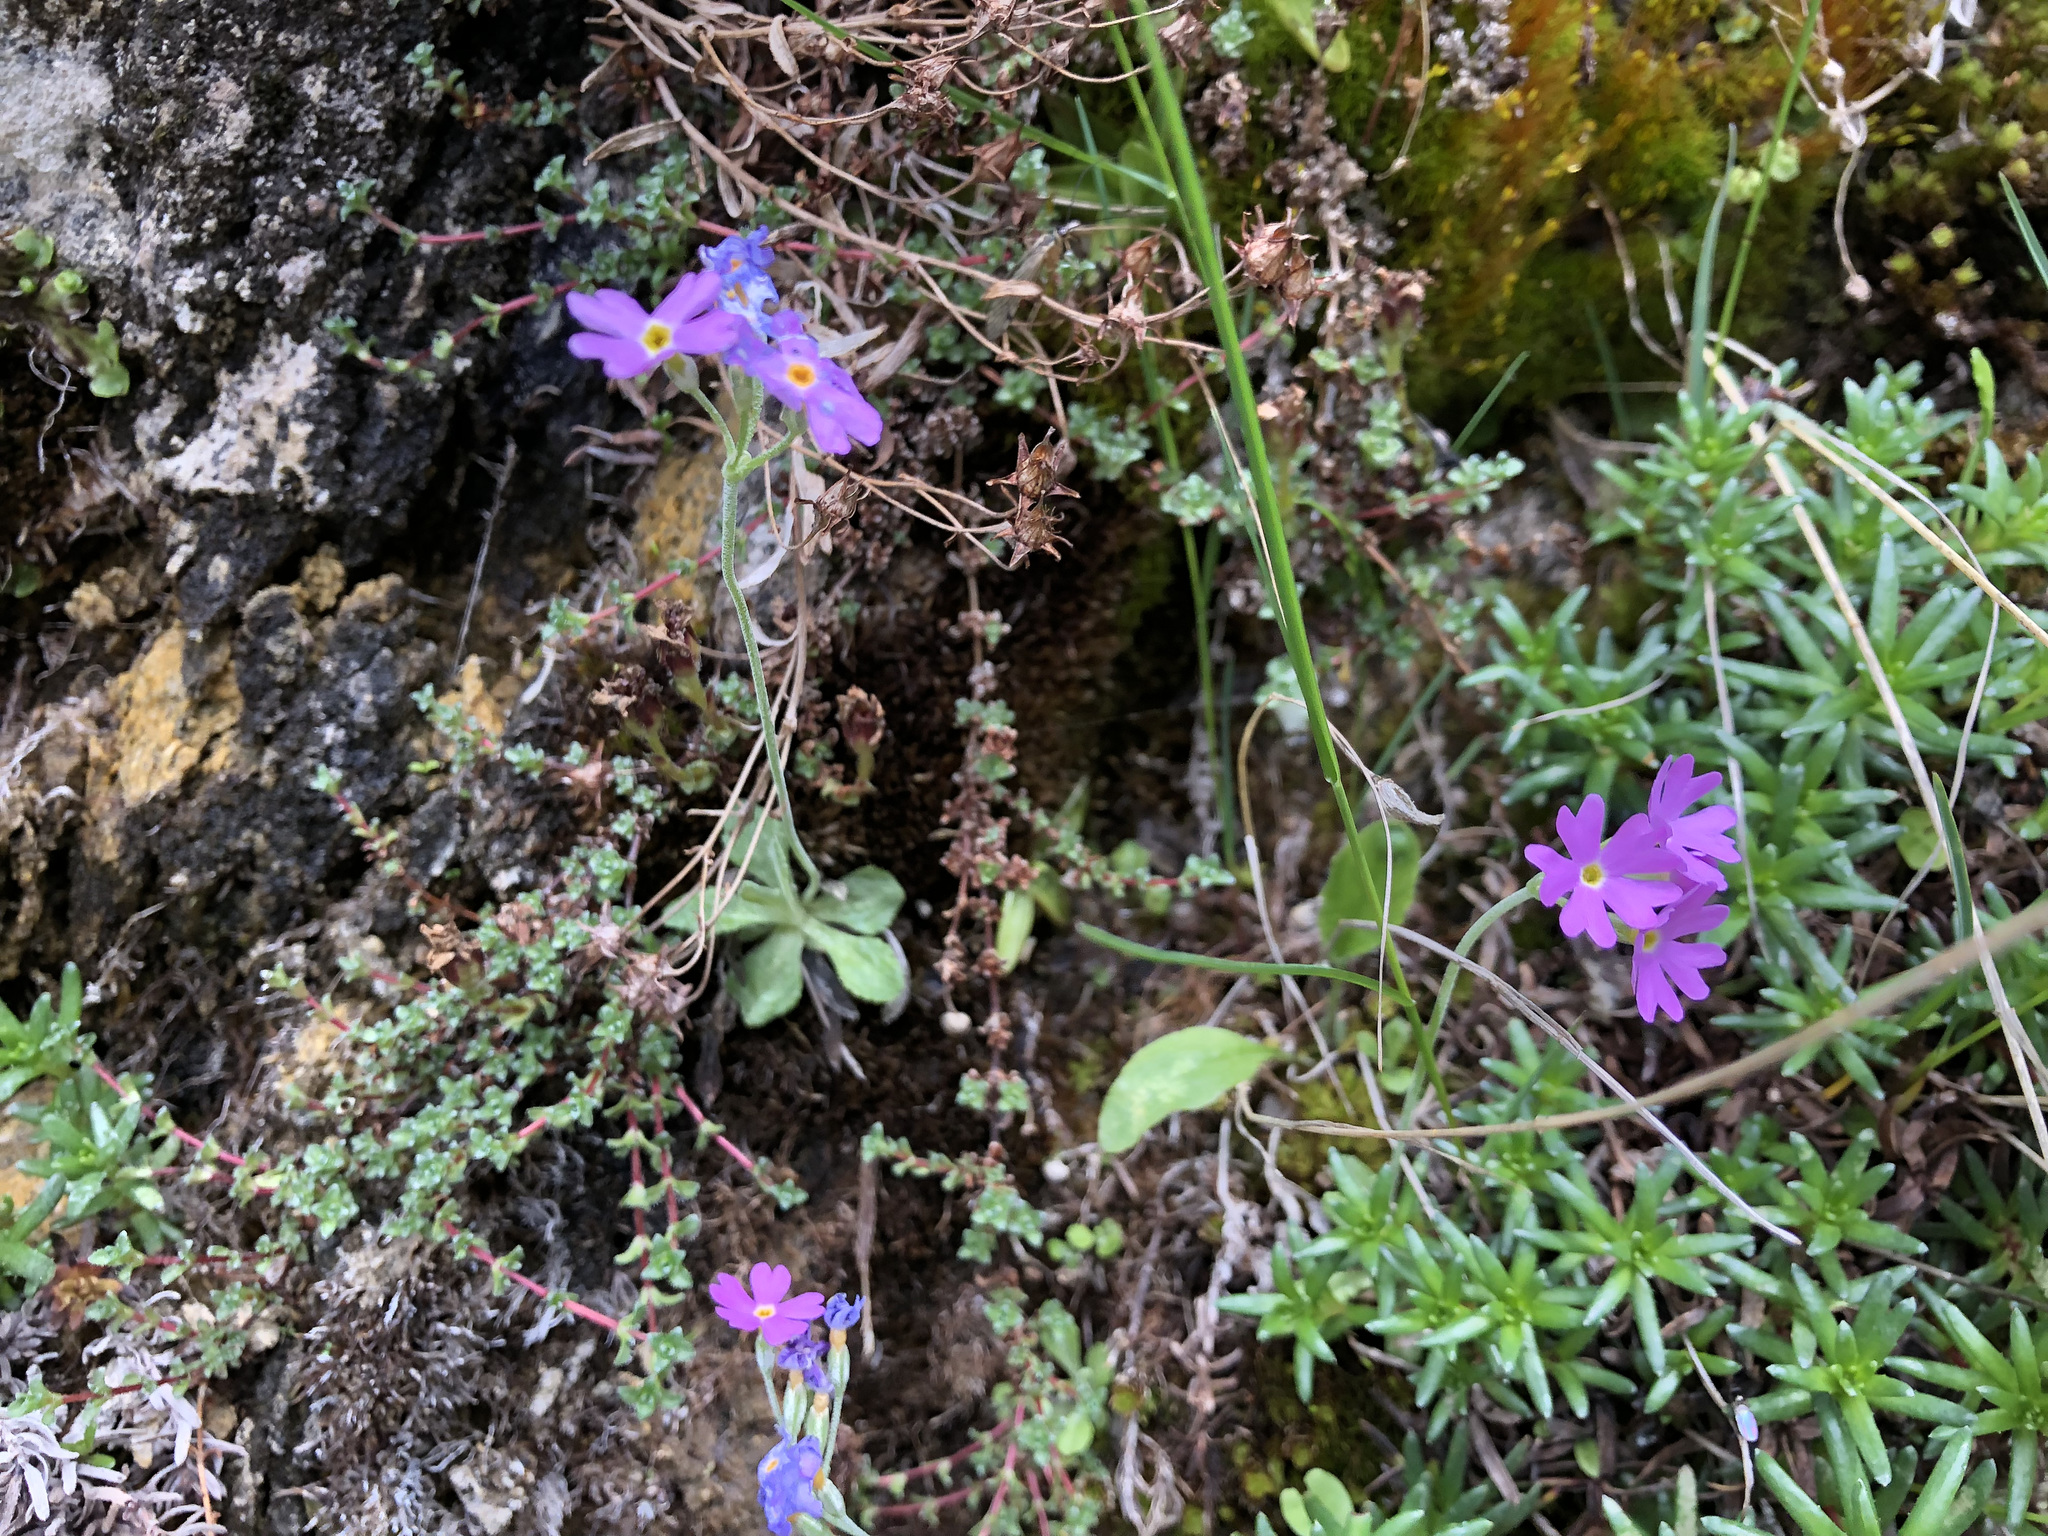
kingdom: Plantae
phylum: Tracheophyta
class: Magnoliopsida
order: Ericales
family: Primulaceae
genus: Primula
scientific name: Primula farinosa
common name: Bird's-eye primrose
